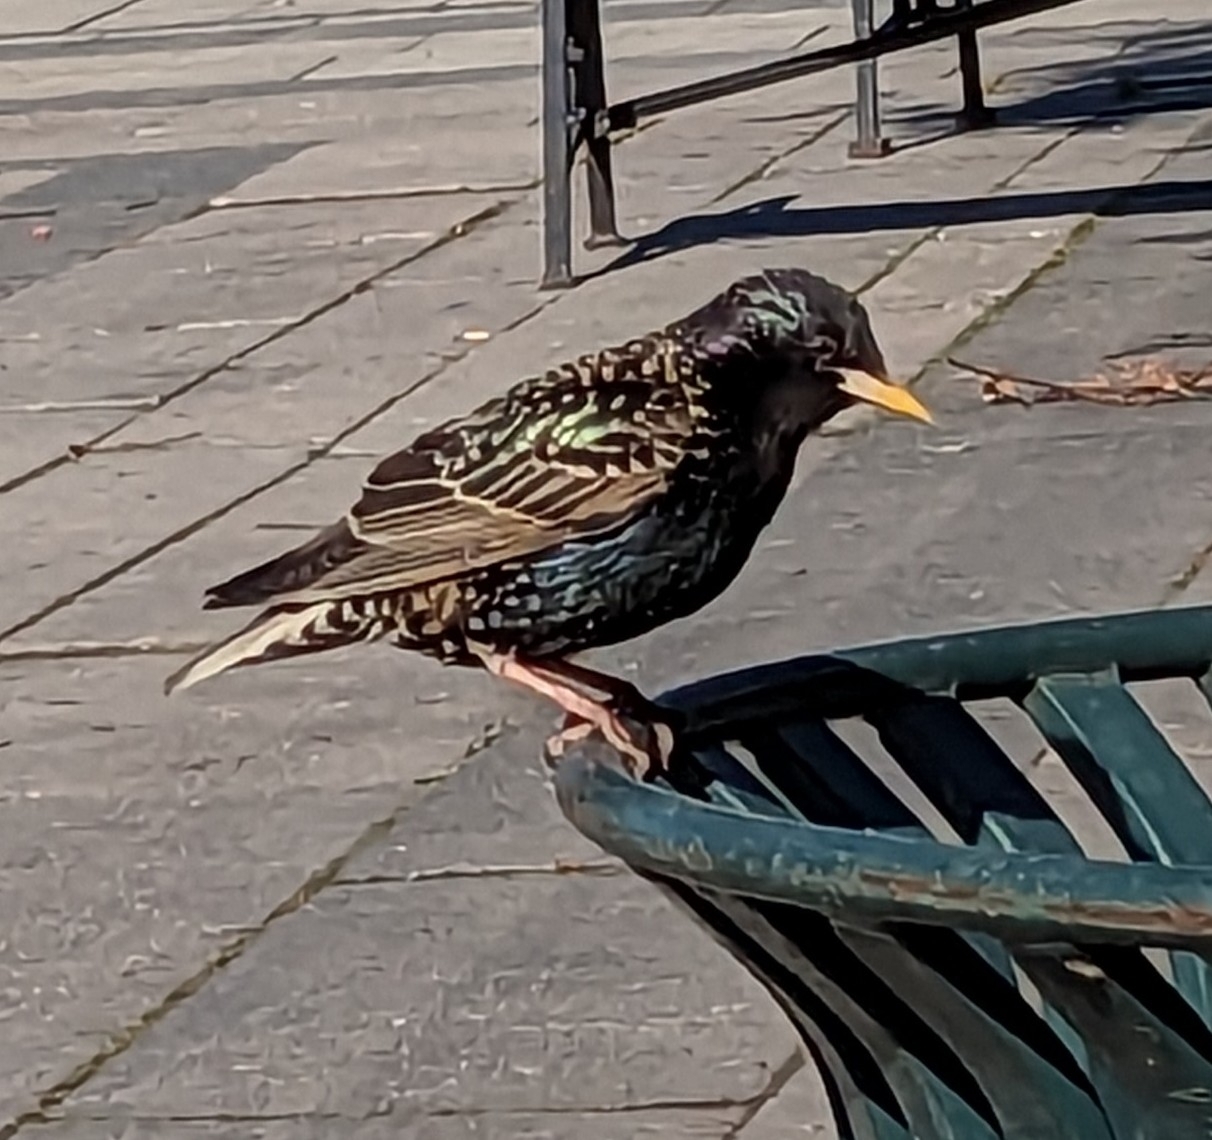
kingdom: Animalia
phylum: Chordata
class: Aves
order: Passeriformes
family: Sturnidae
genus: Sturnus
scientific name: Sturnus vulgaris
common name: Common starling
